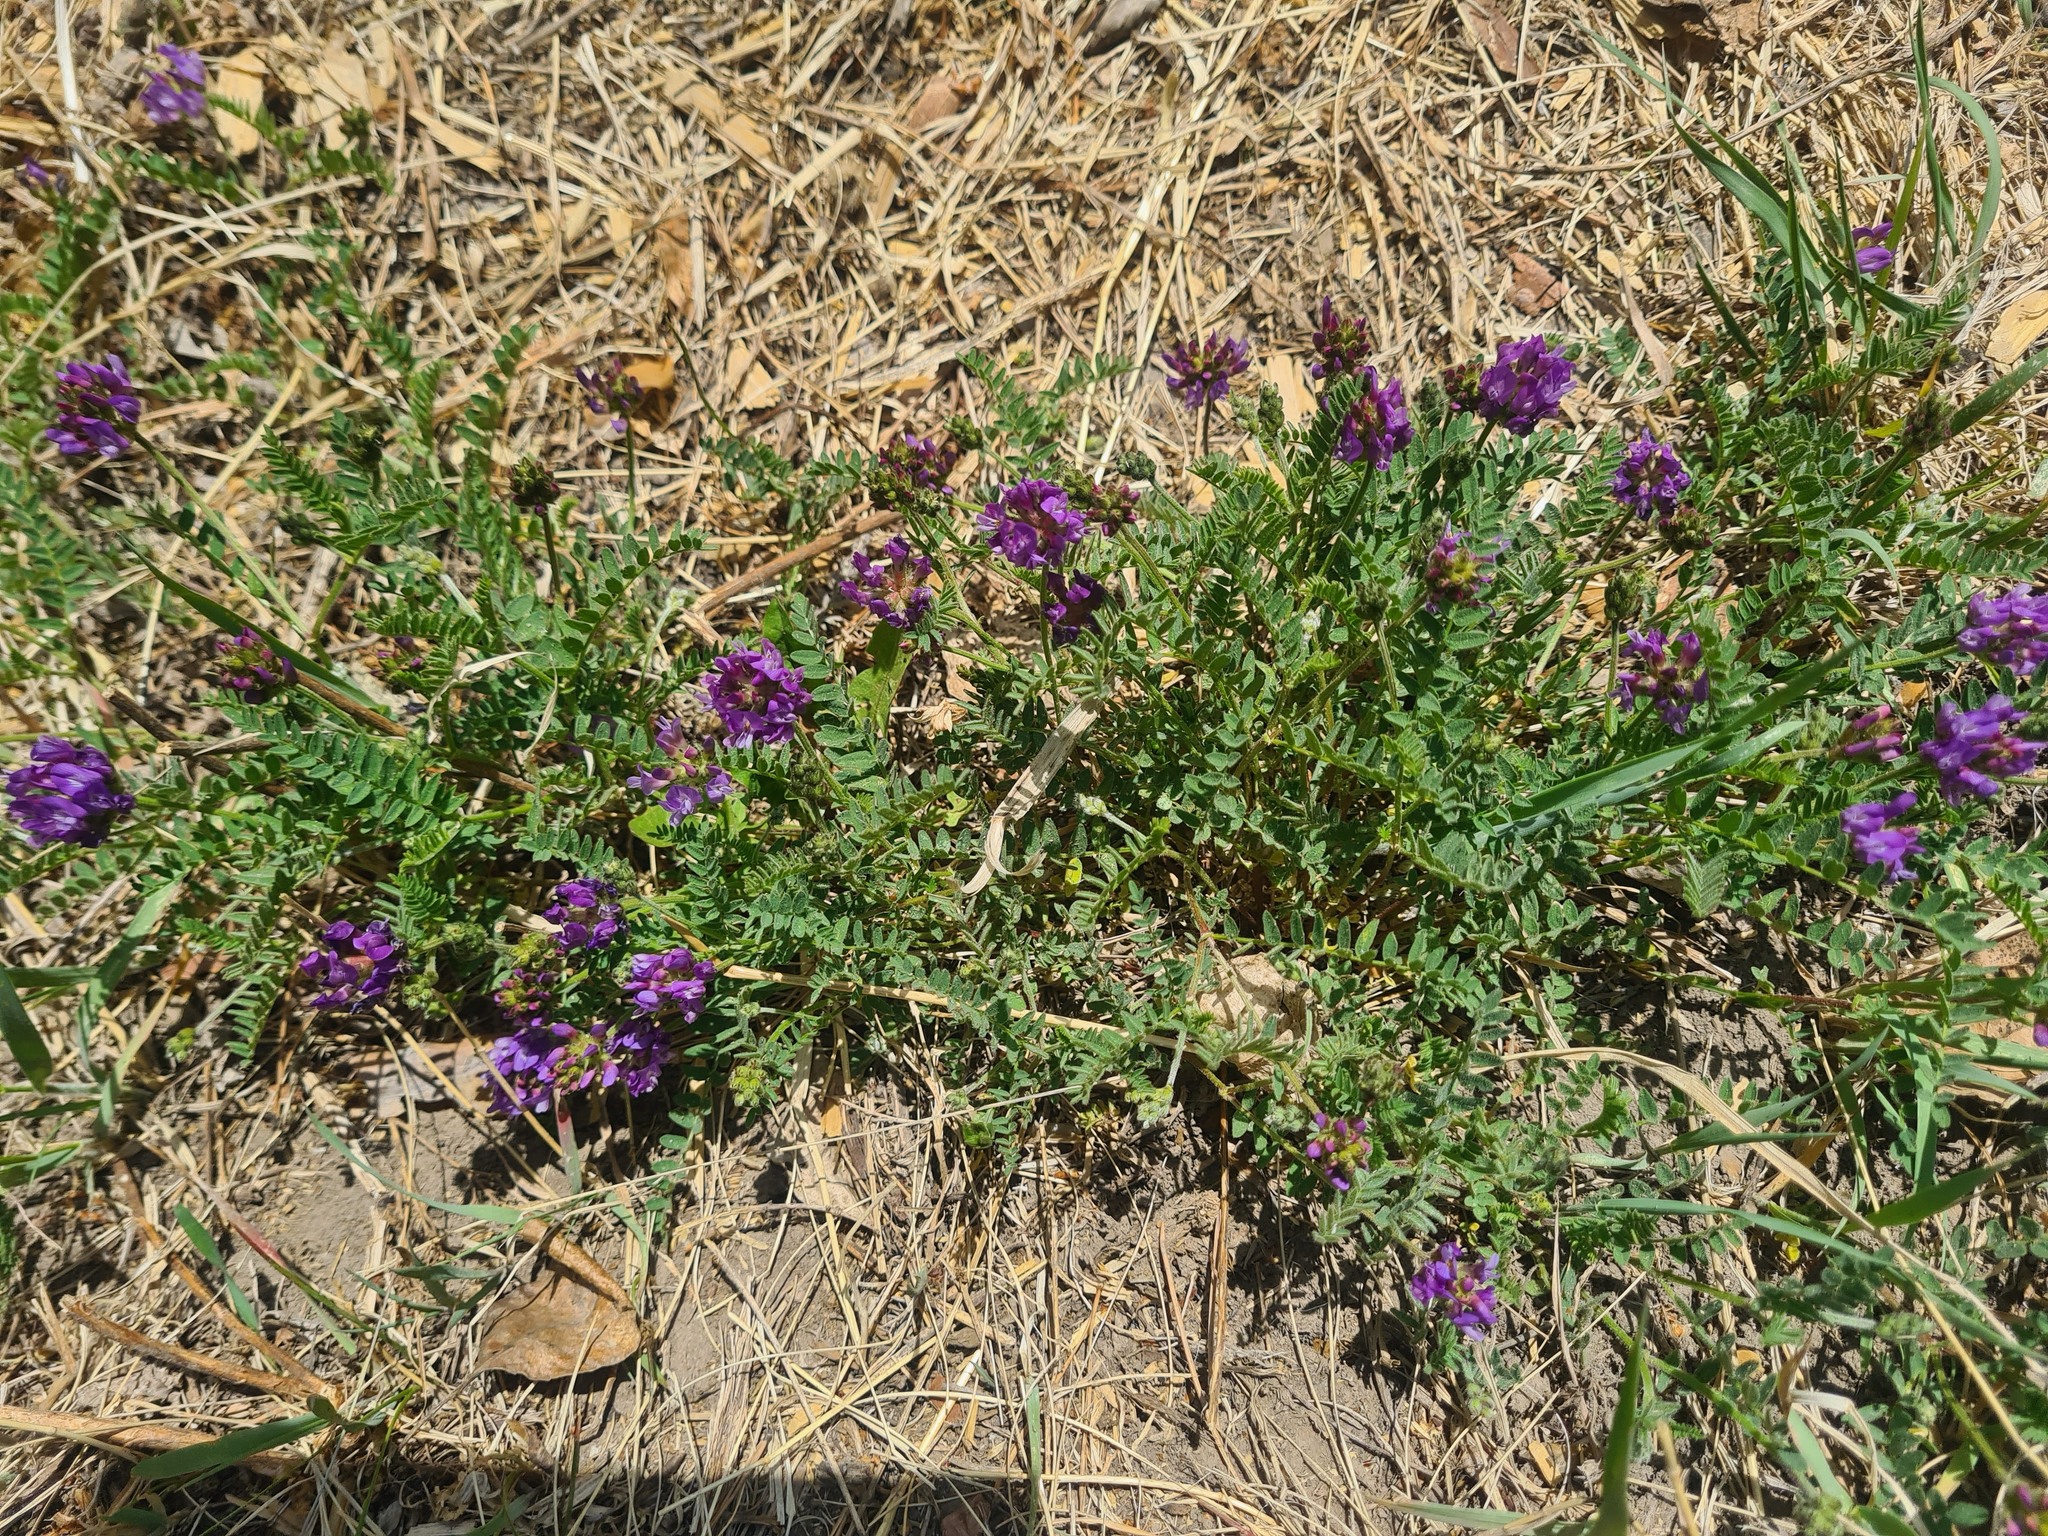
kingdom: Plantae
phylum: Tracheophyta
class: Magnoliopsida
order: Fabales
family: Fabaceae
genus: Astragalus
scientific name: Astragalus danicus
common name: Purple milk-vetch
